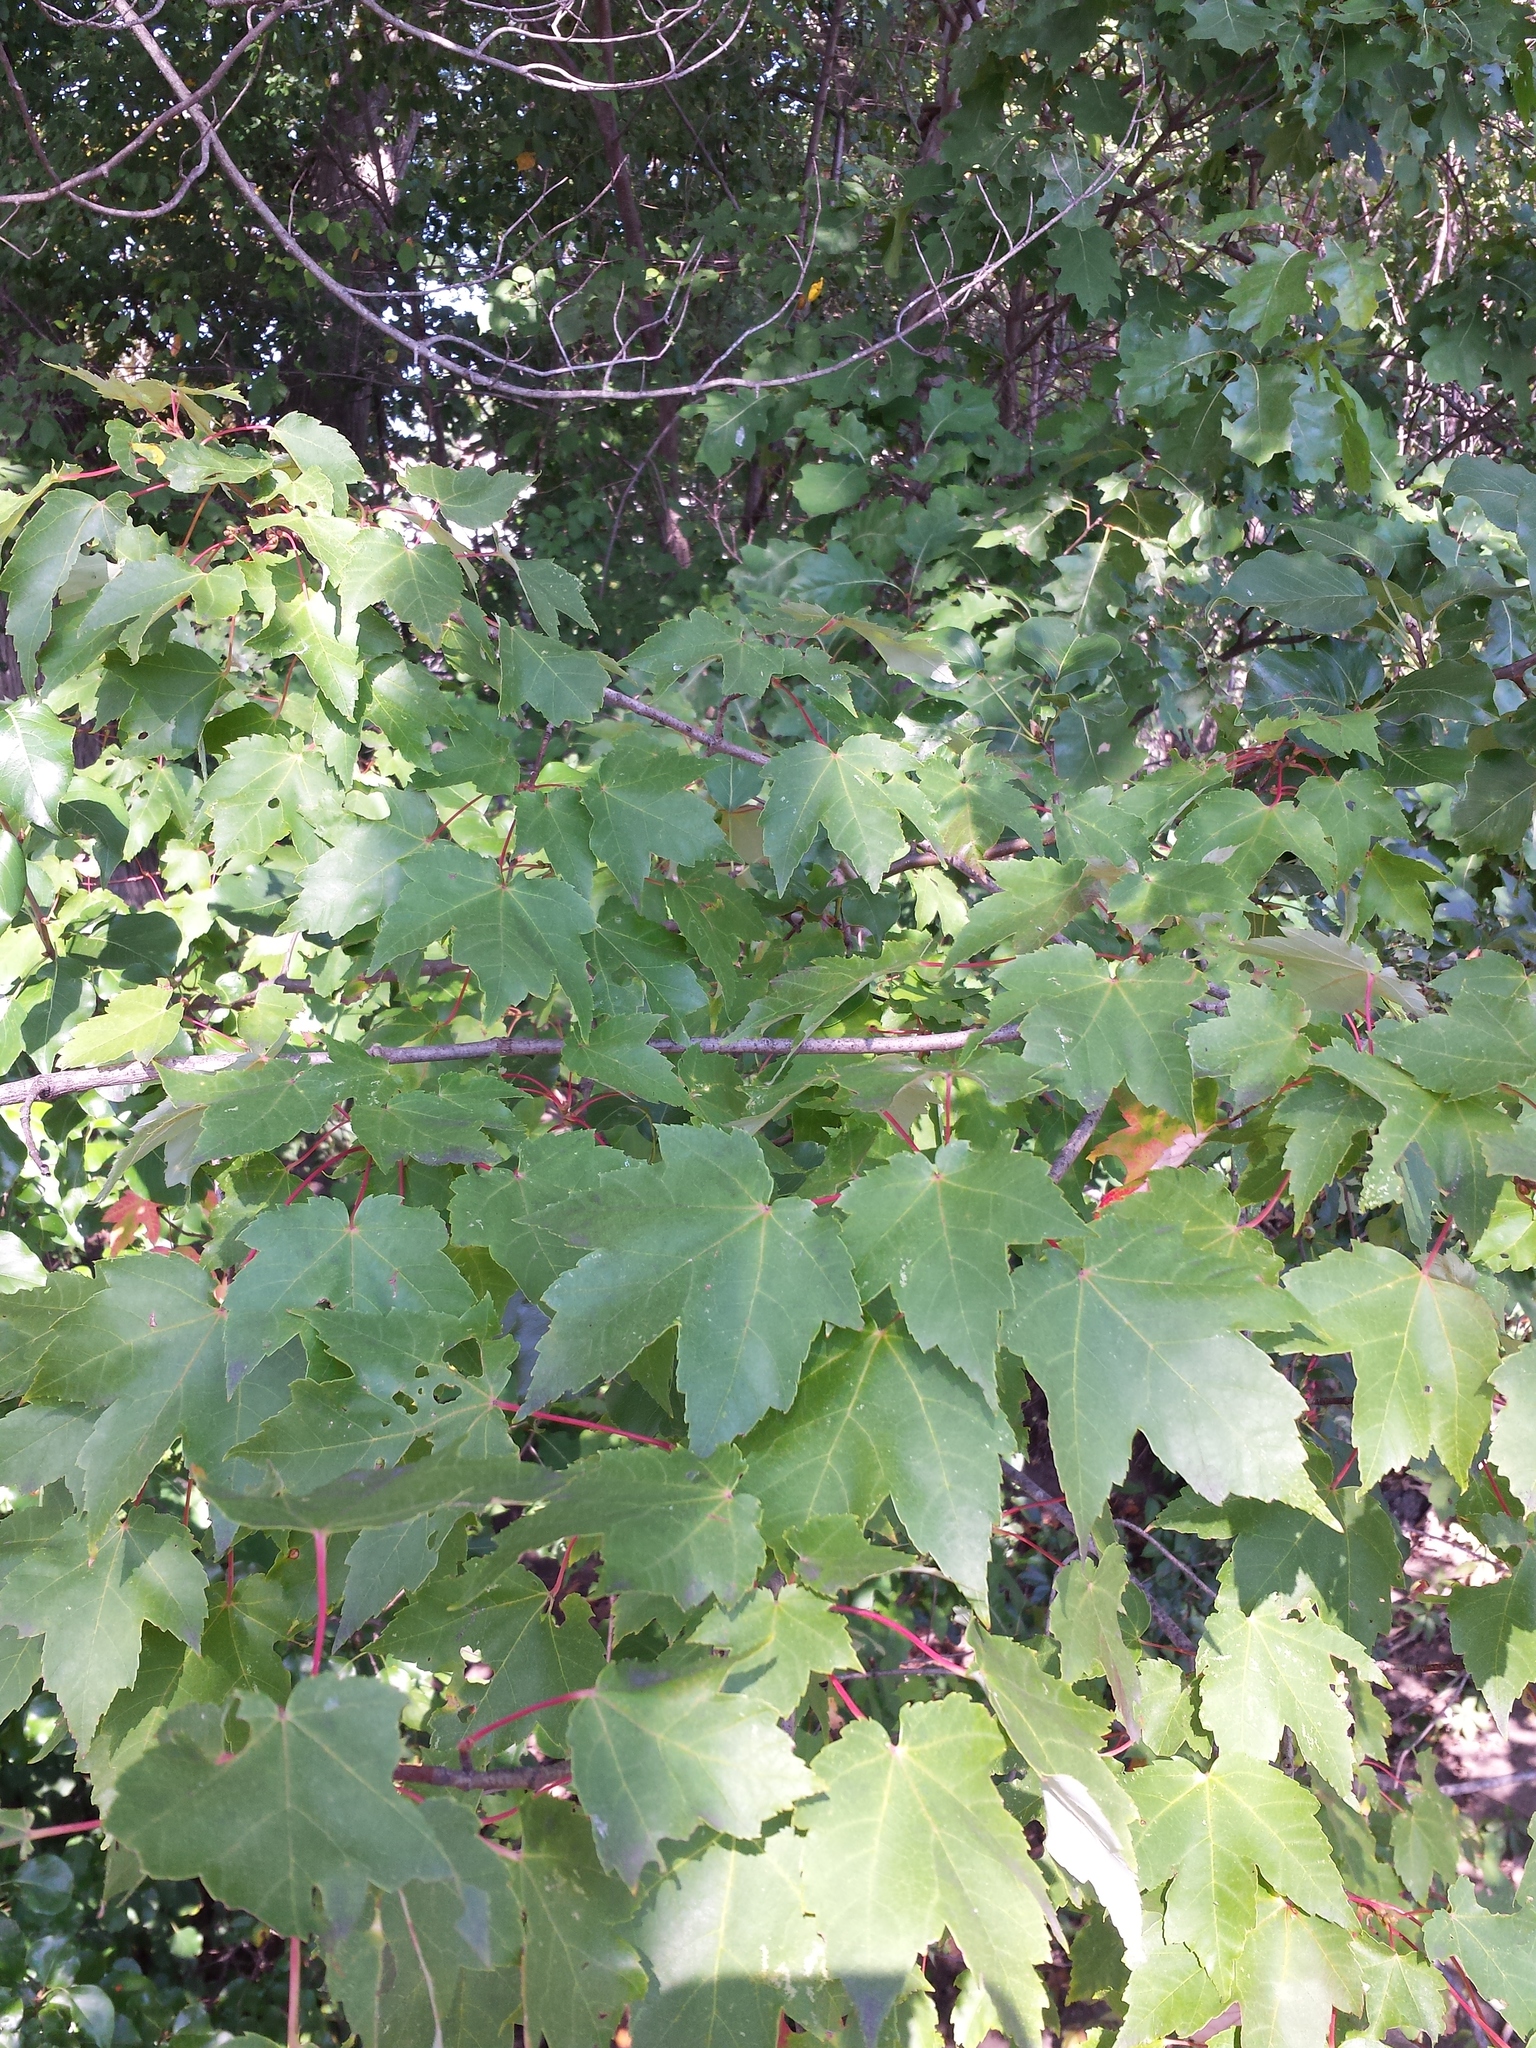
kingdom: Plantae
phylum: Tracheophyta
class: Magnoliopsida
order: Sapindales
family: Sapindaceae
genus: Acer
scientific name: Acer rubrum
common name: Red maple
